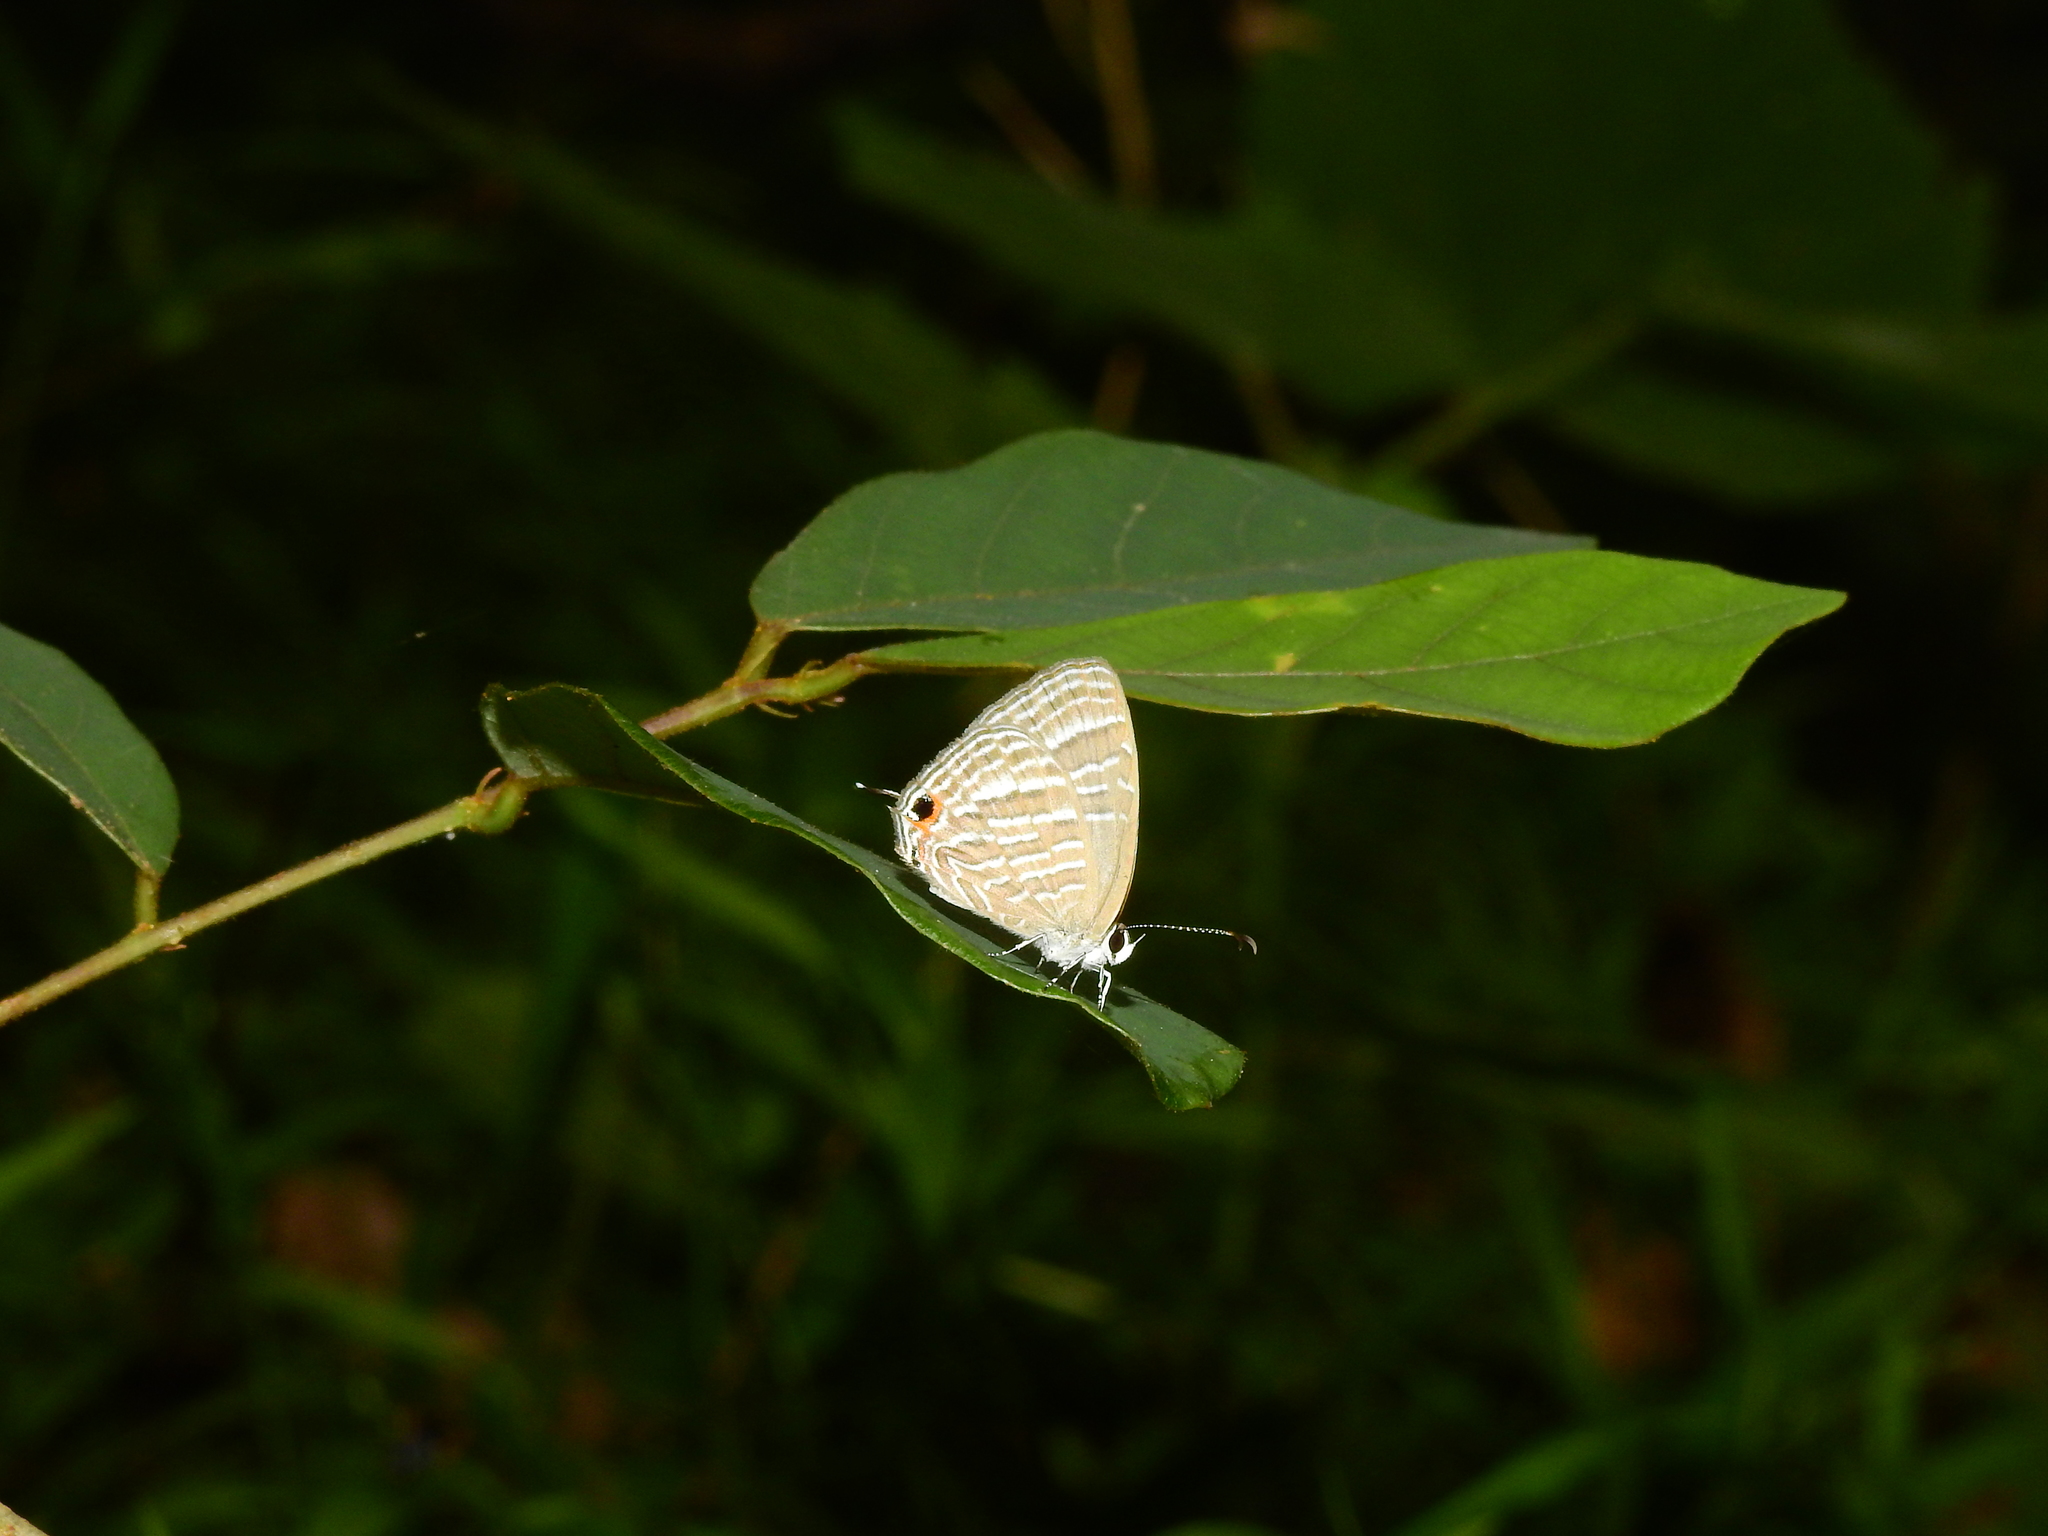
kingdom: Animalia
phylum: Arthropoda
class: Insecta
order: Lepidoptera
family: Lycaenidae
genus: Jamides
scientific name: Jamides celeno
